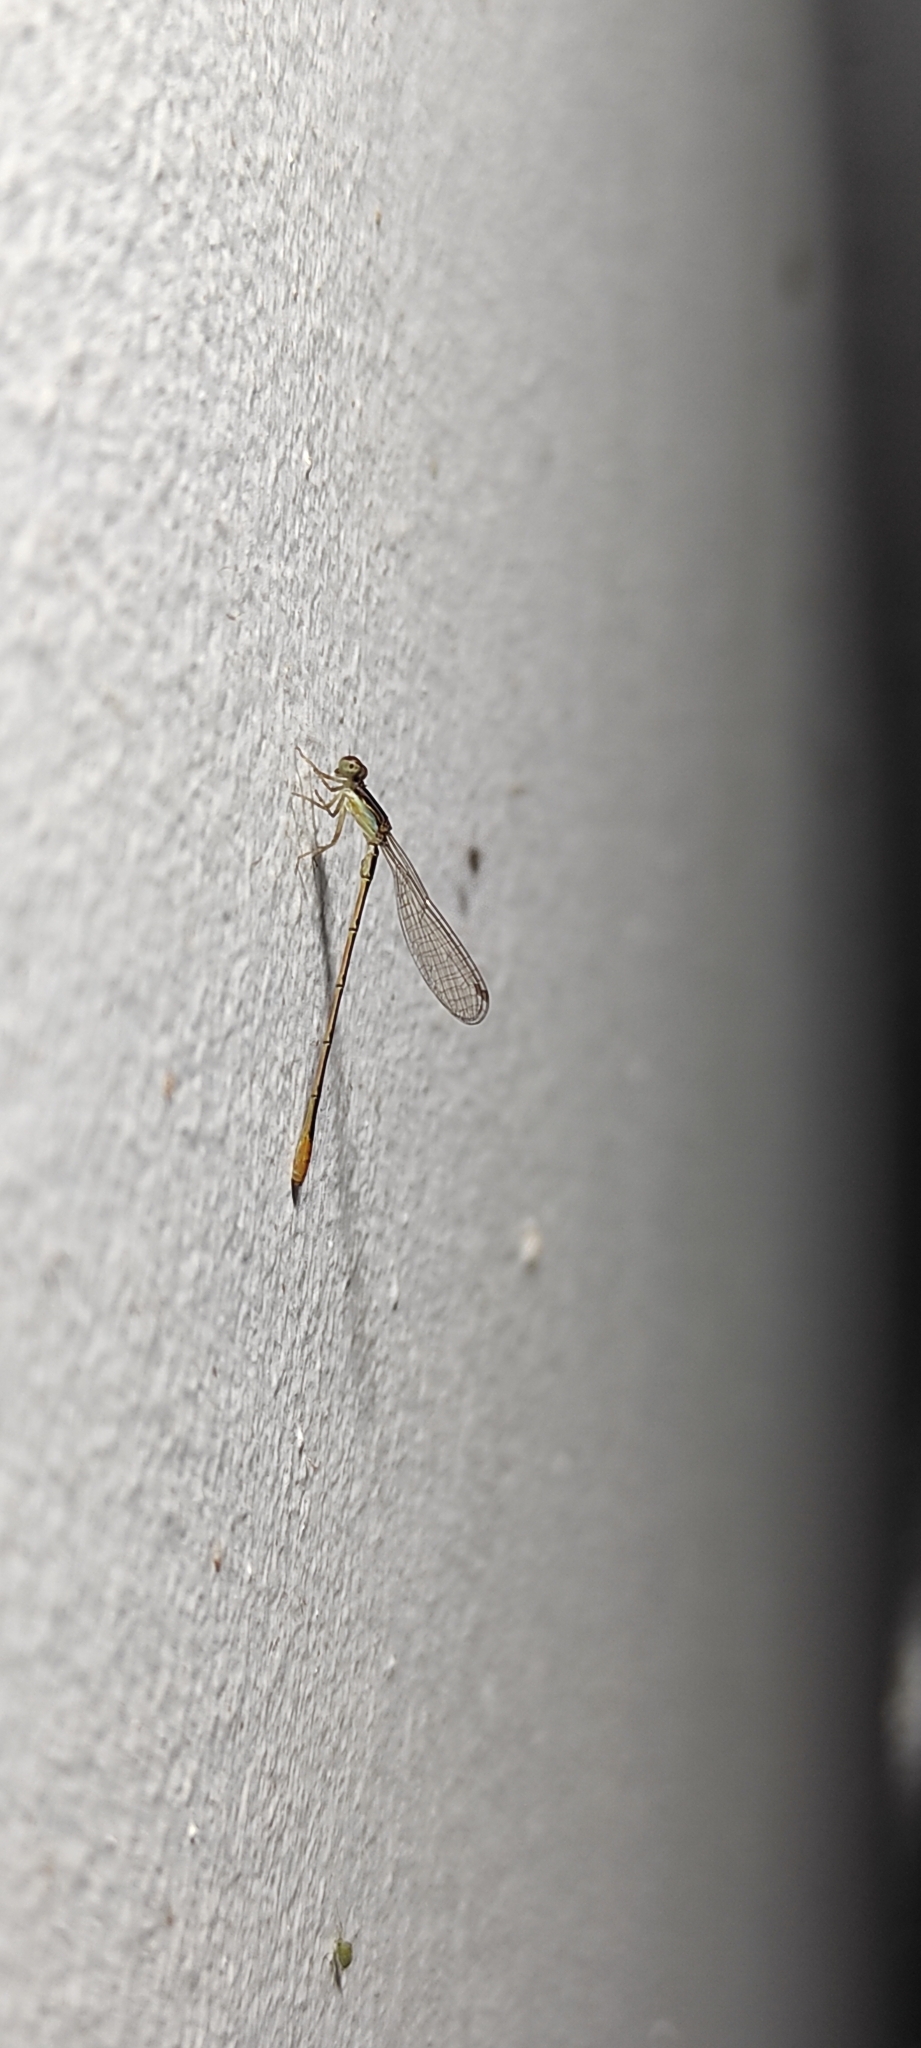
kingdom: Animalia
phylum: Arthropoda
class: Insecta
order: Odonata
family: Coenagrionidae
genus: Agriocnemis
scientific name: Agriocnemis pygmaea
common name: Pygmy wisp
